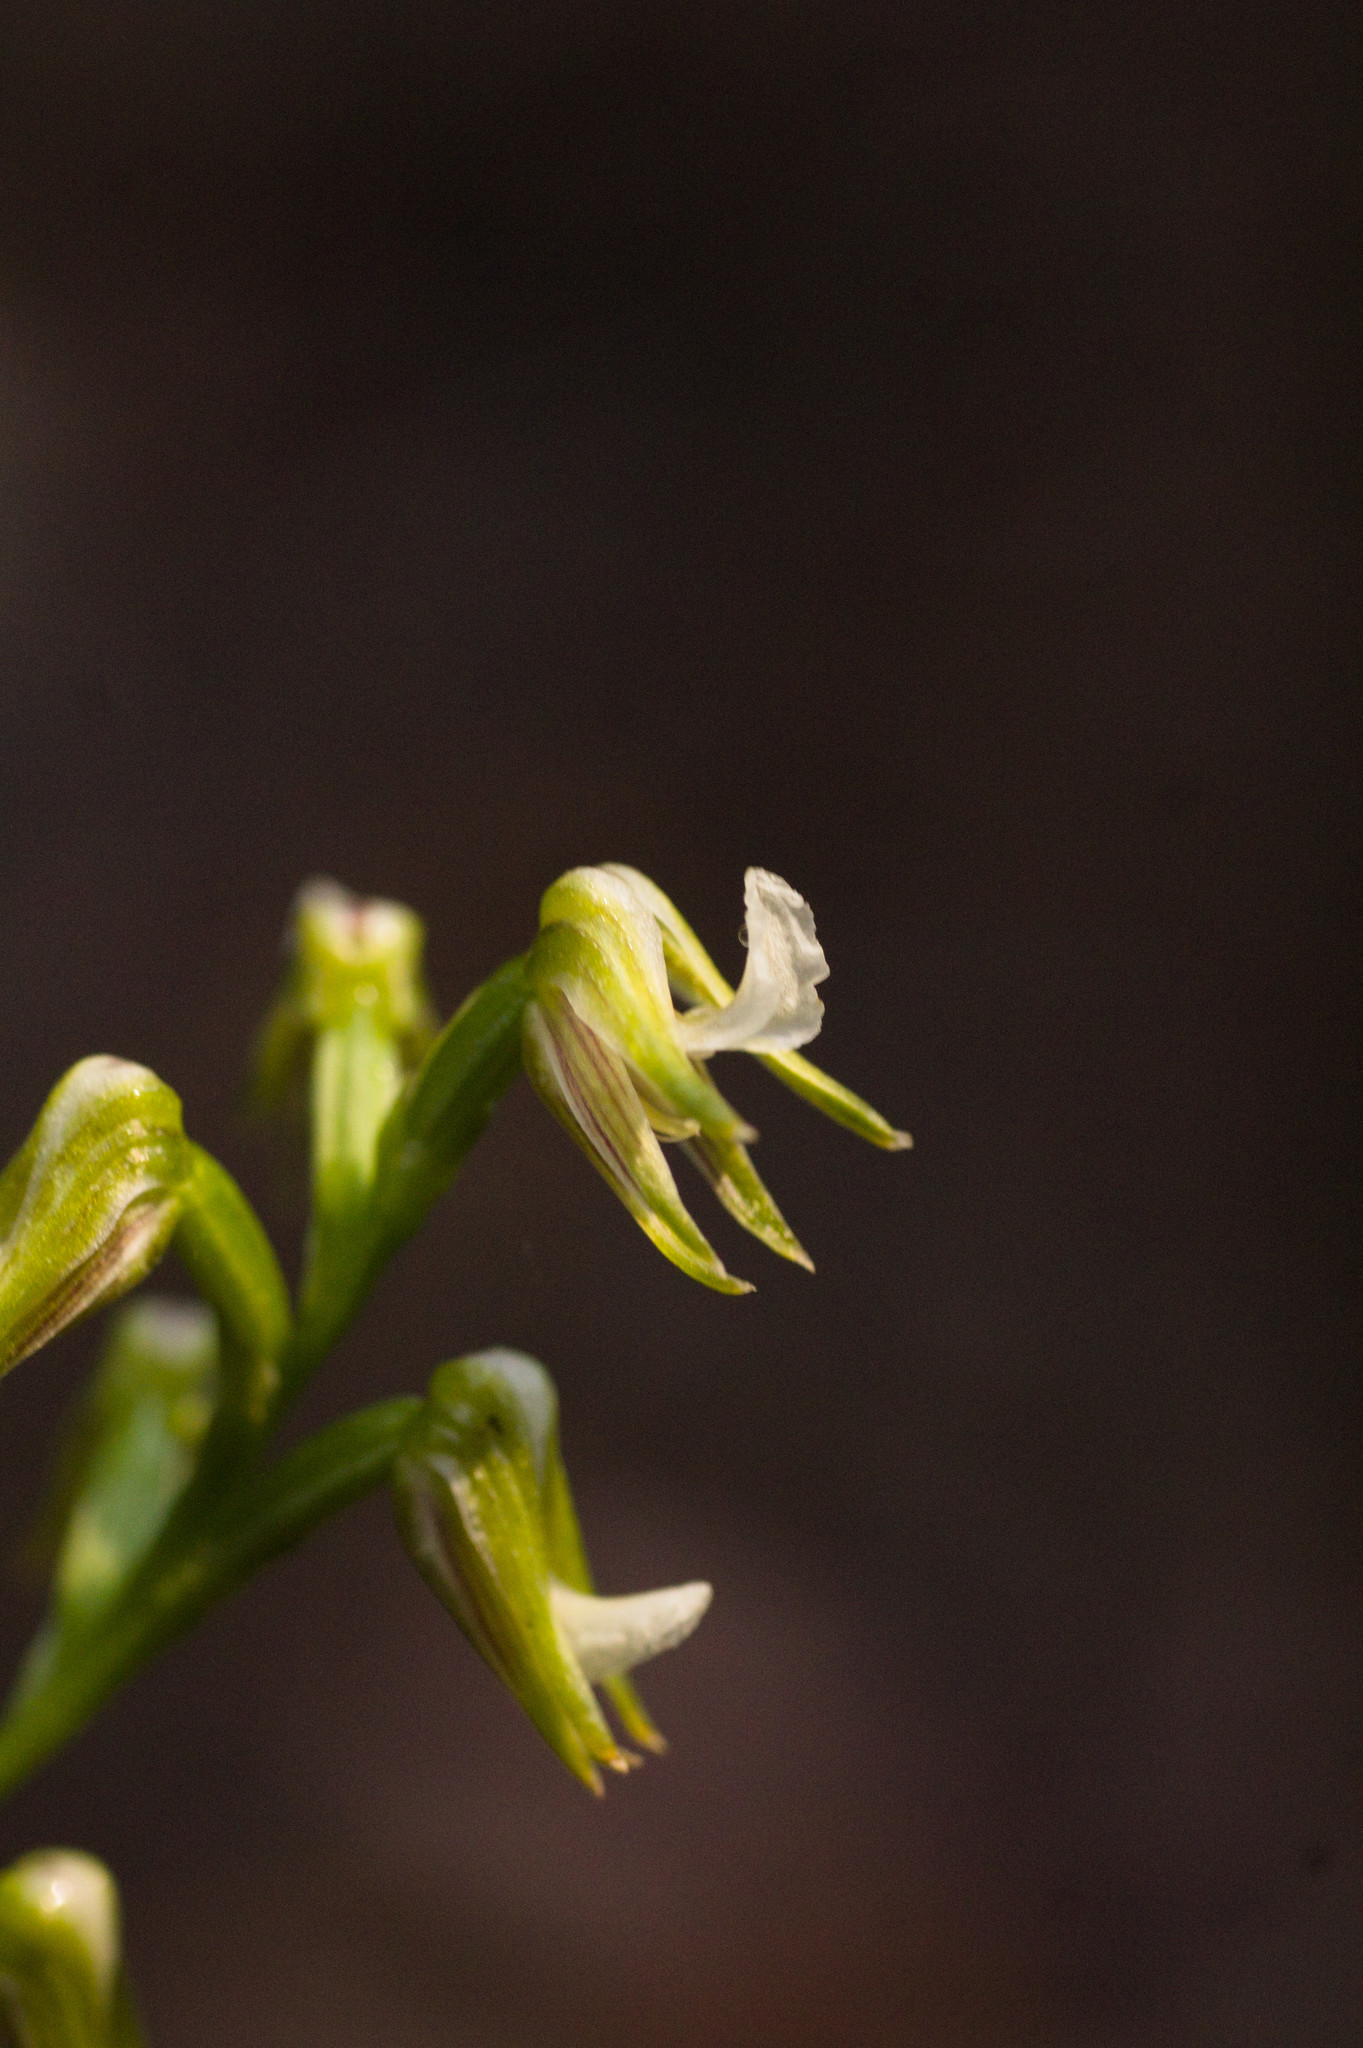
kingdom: Plantae
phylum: Tracheophyta
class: Liliopsida
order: Asparagales
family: Orchidaceae
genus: Prasophyllum
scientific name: Prasophyllum parvifolium
